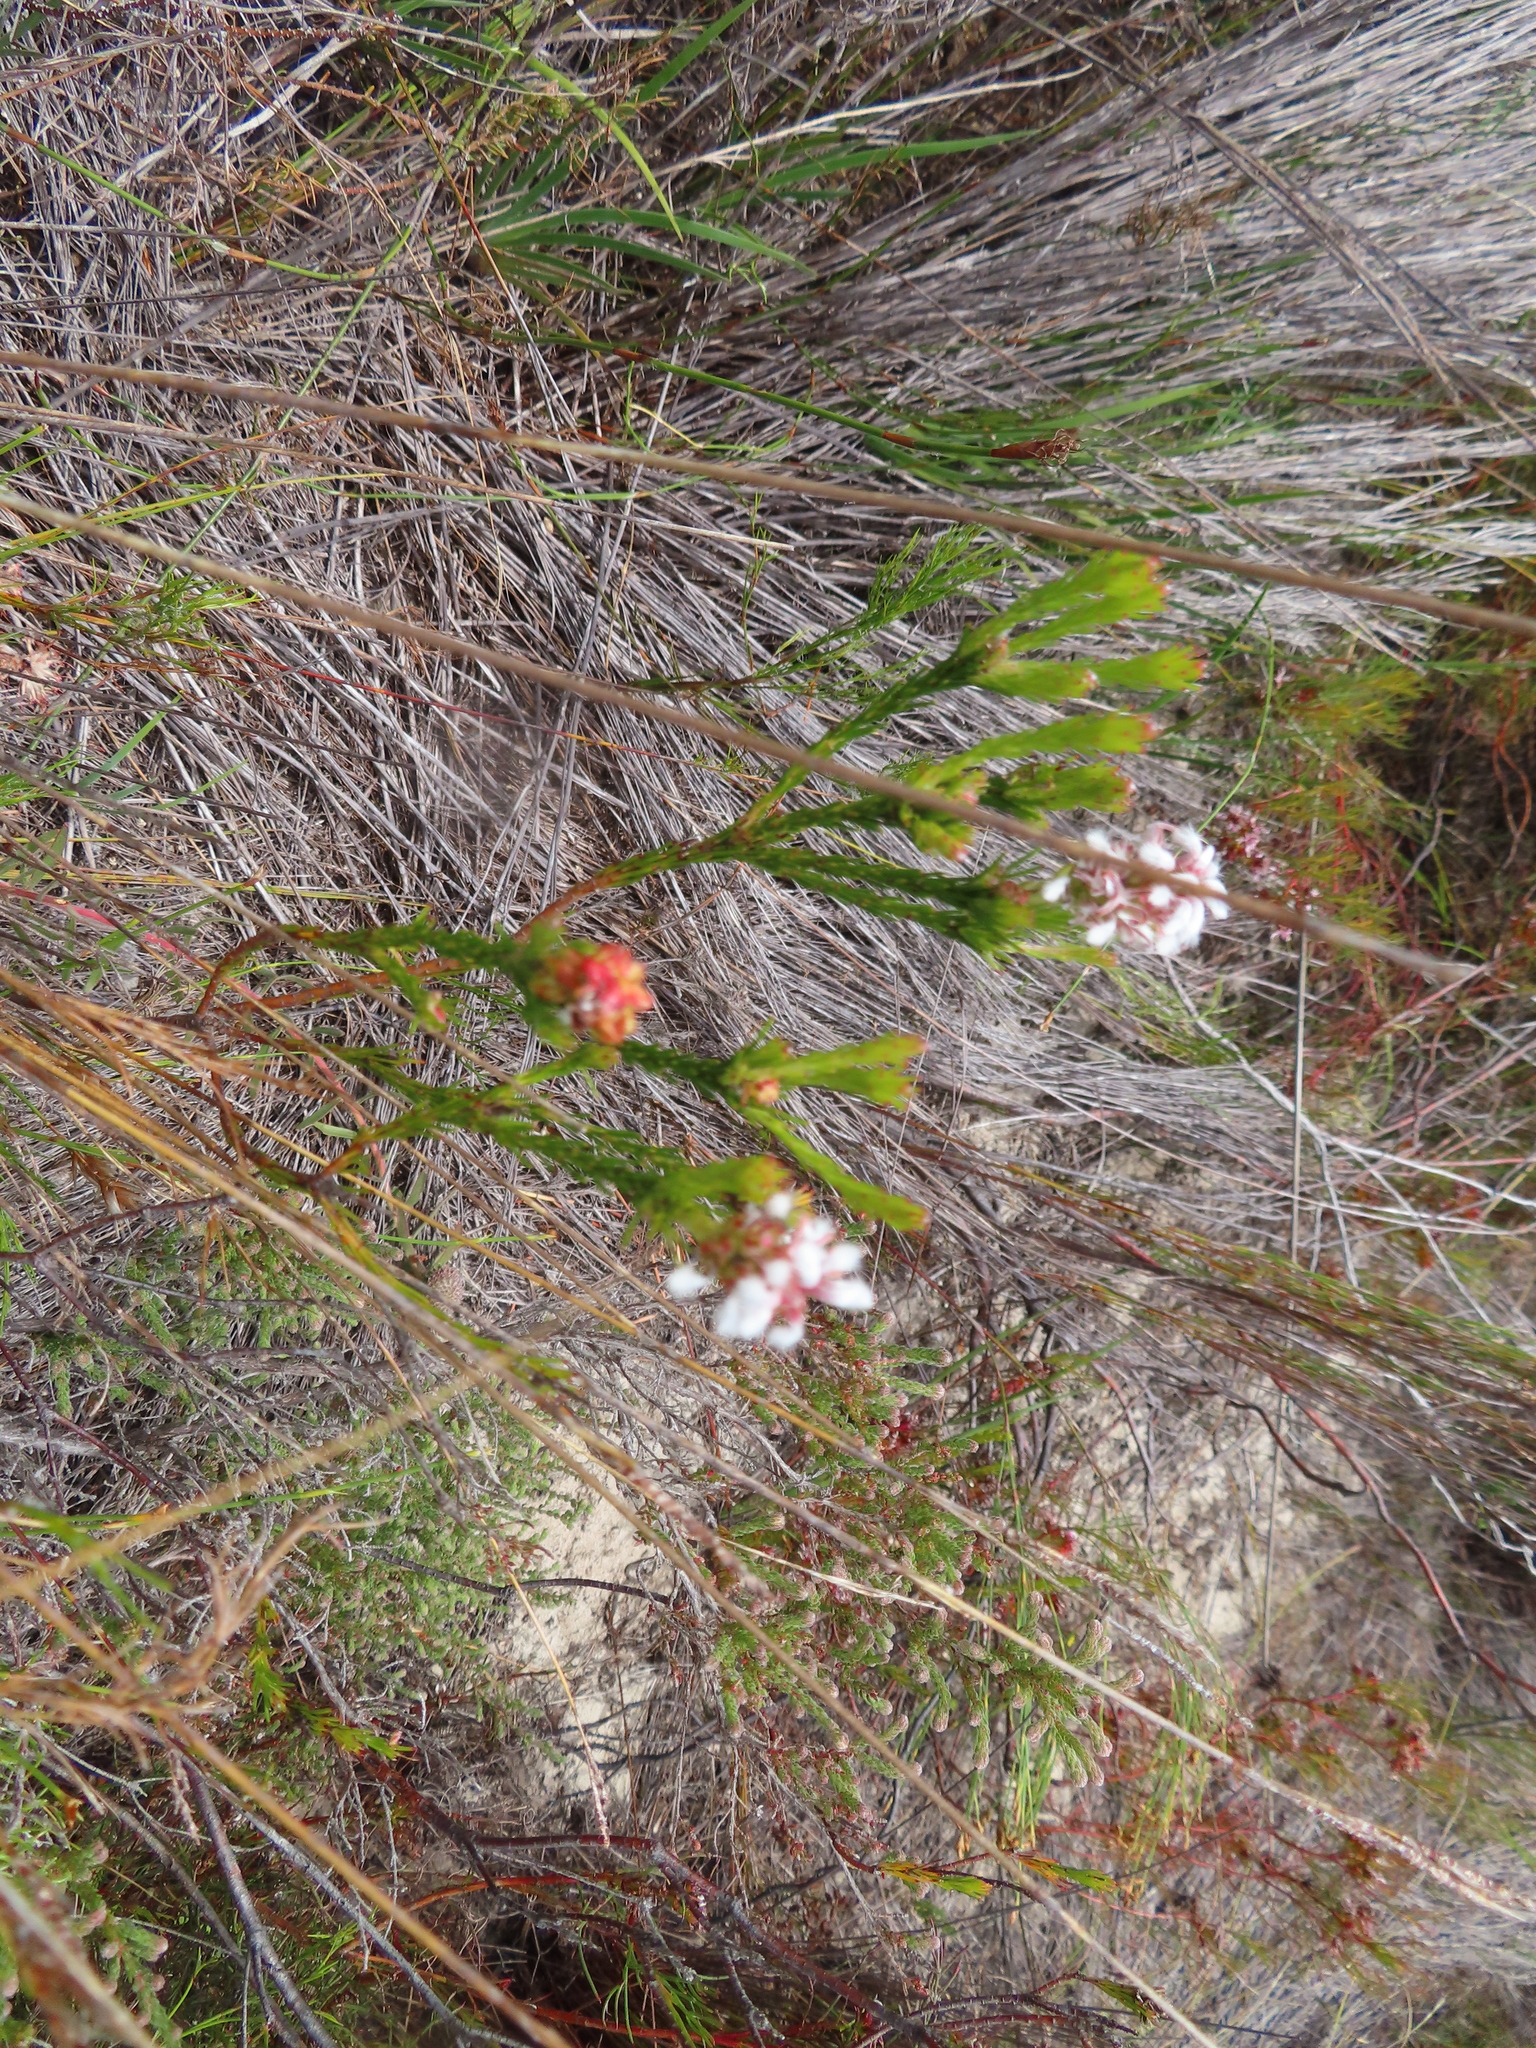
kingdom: Plantae
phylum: Tracheophyta
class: Magnoliopsida
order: Proteales
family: Proteaceae
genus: Spatalla
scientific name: Spatalla squamata
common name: Silky spoon
